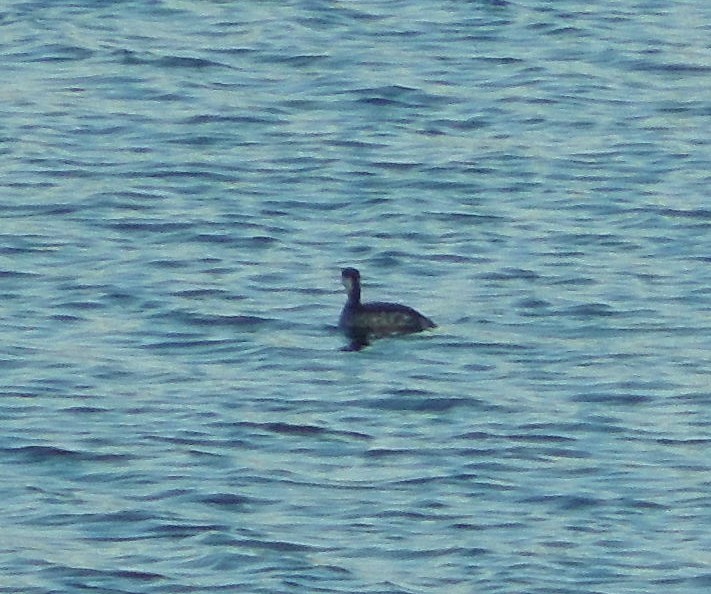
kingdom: Animalia
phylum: Chordata
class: Aves
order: Podicipediformes
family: Podicipedidae
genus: Podiceps
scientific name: Podiceps auritus
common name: Horned grebe
